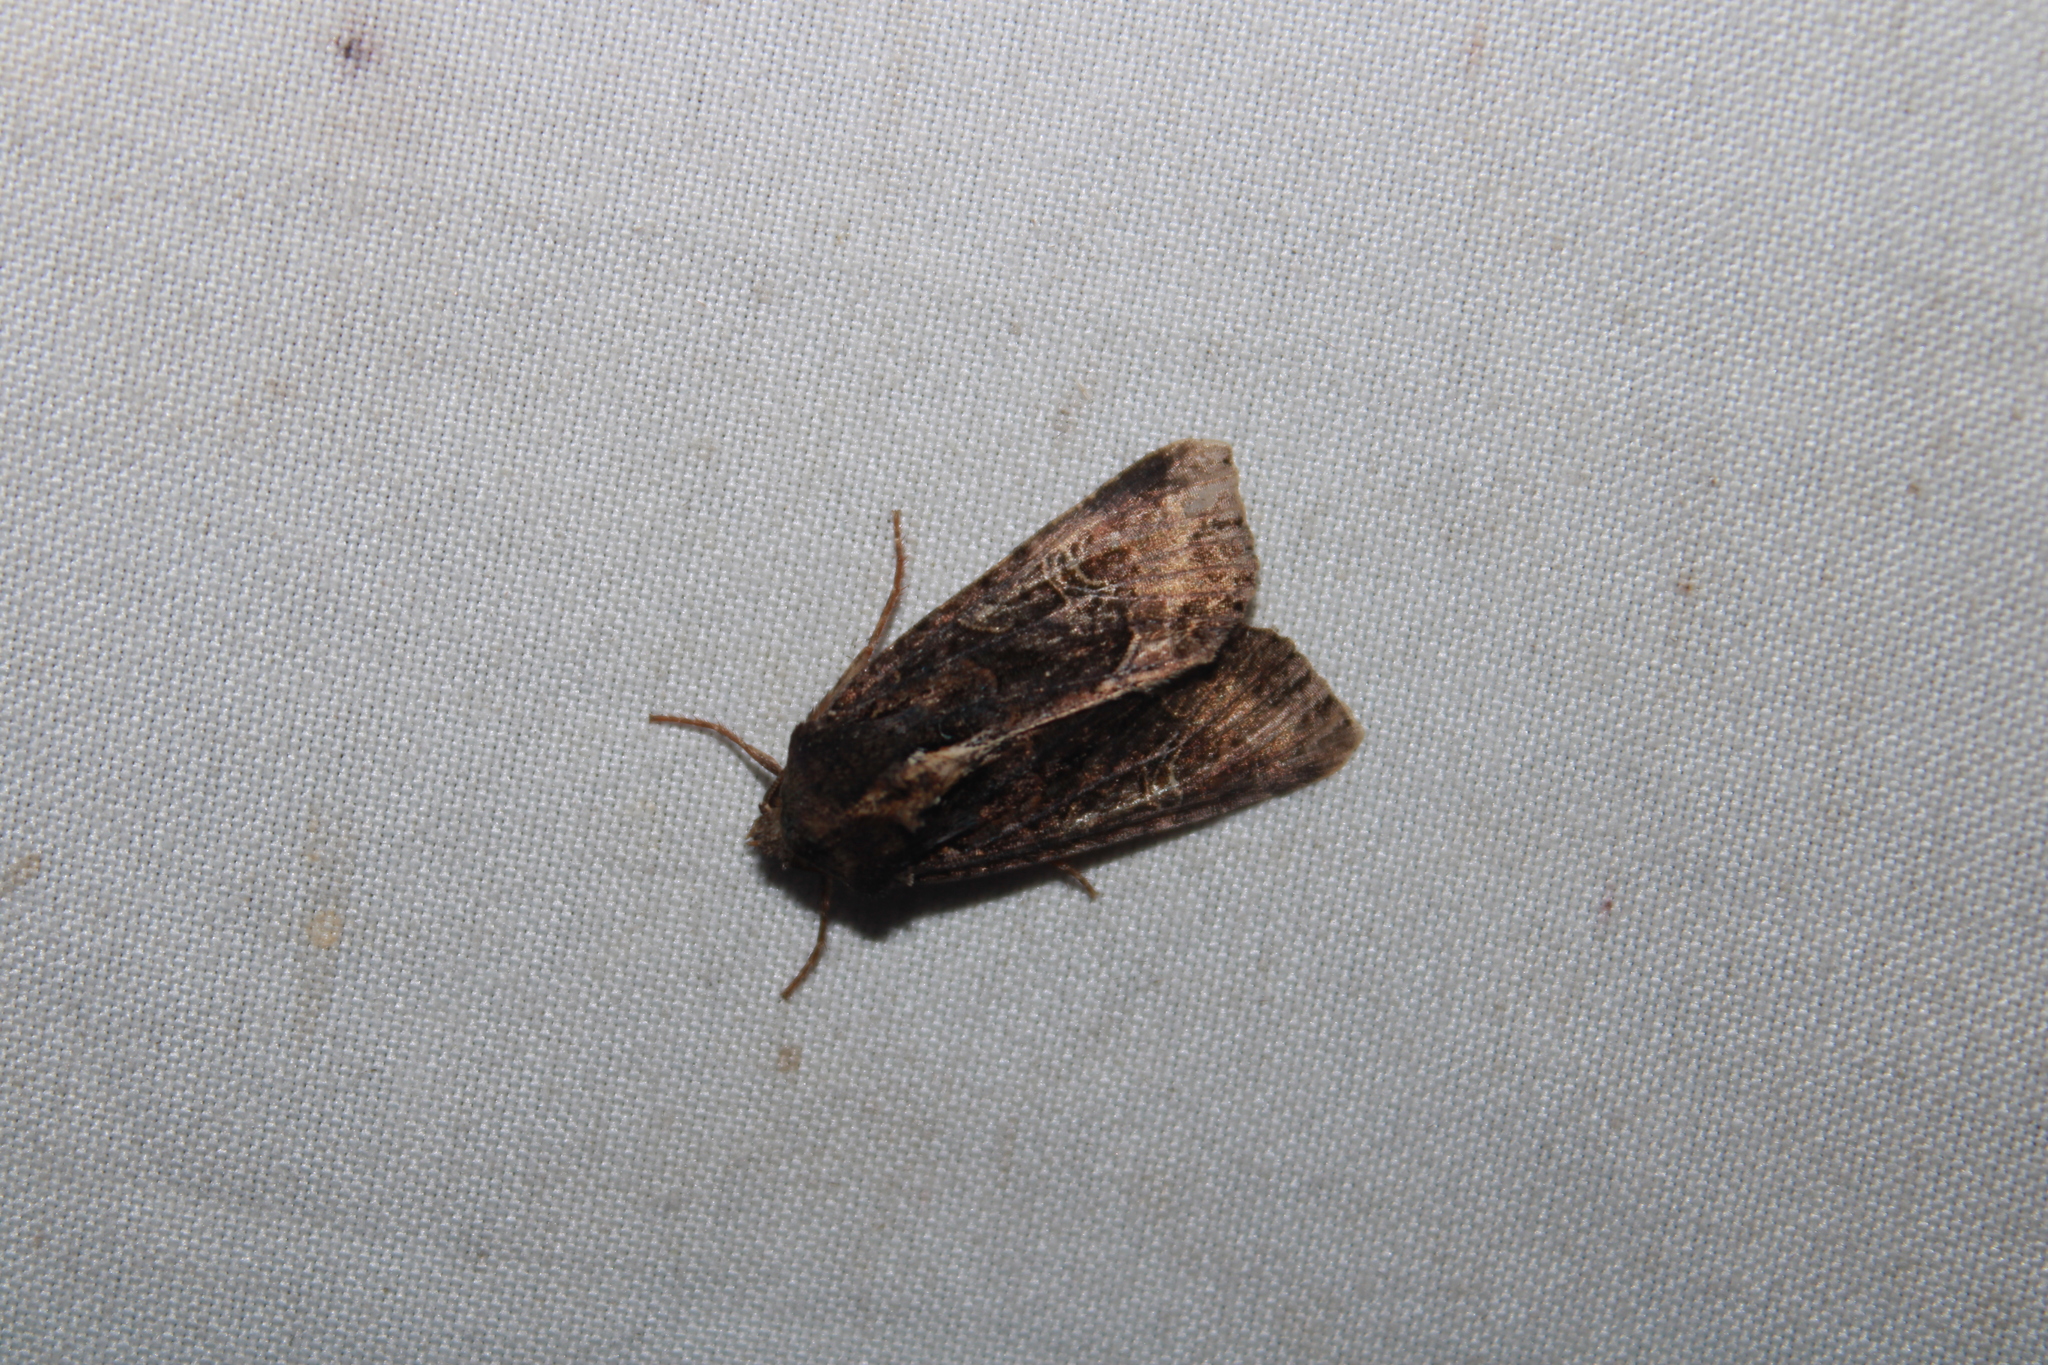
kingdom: Animalia
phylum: Arthropoda
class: Insecta
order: Lepidoptera
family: Noctuidae
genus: Helotropha
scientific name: Helotropha reniformis
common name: Kidney-spotted rustic moth
